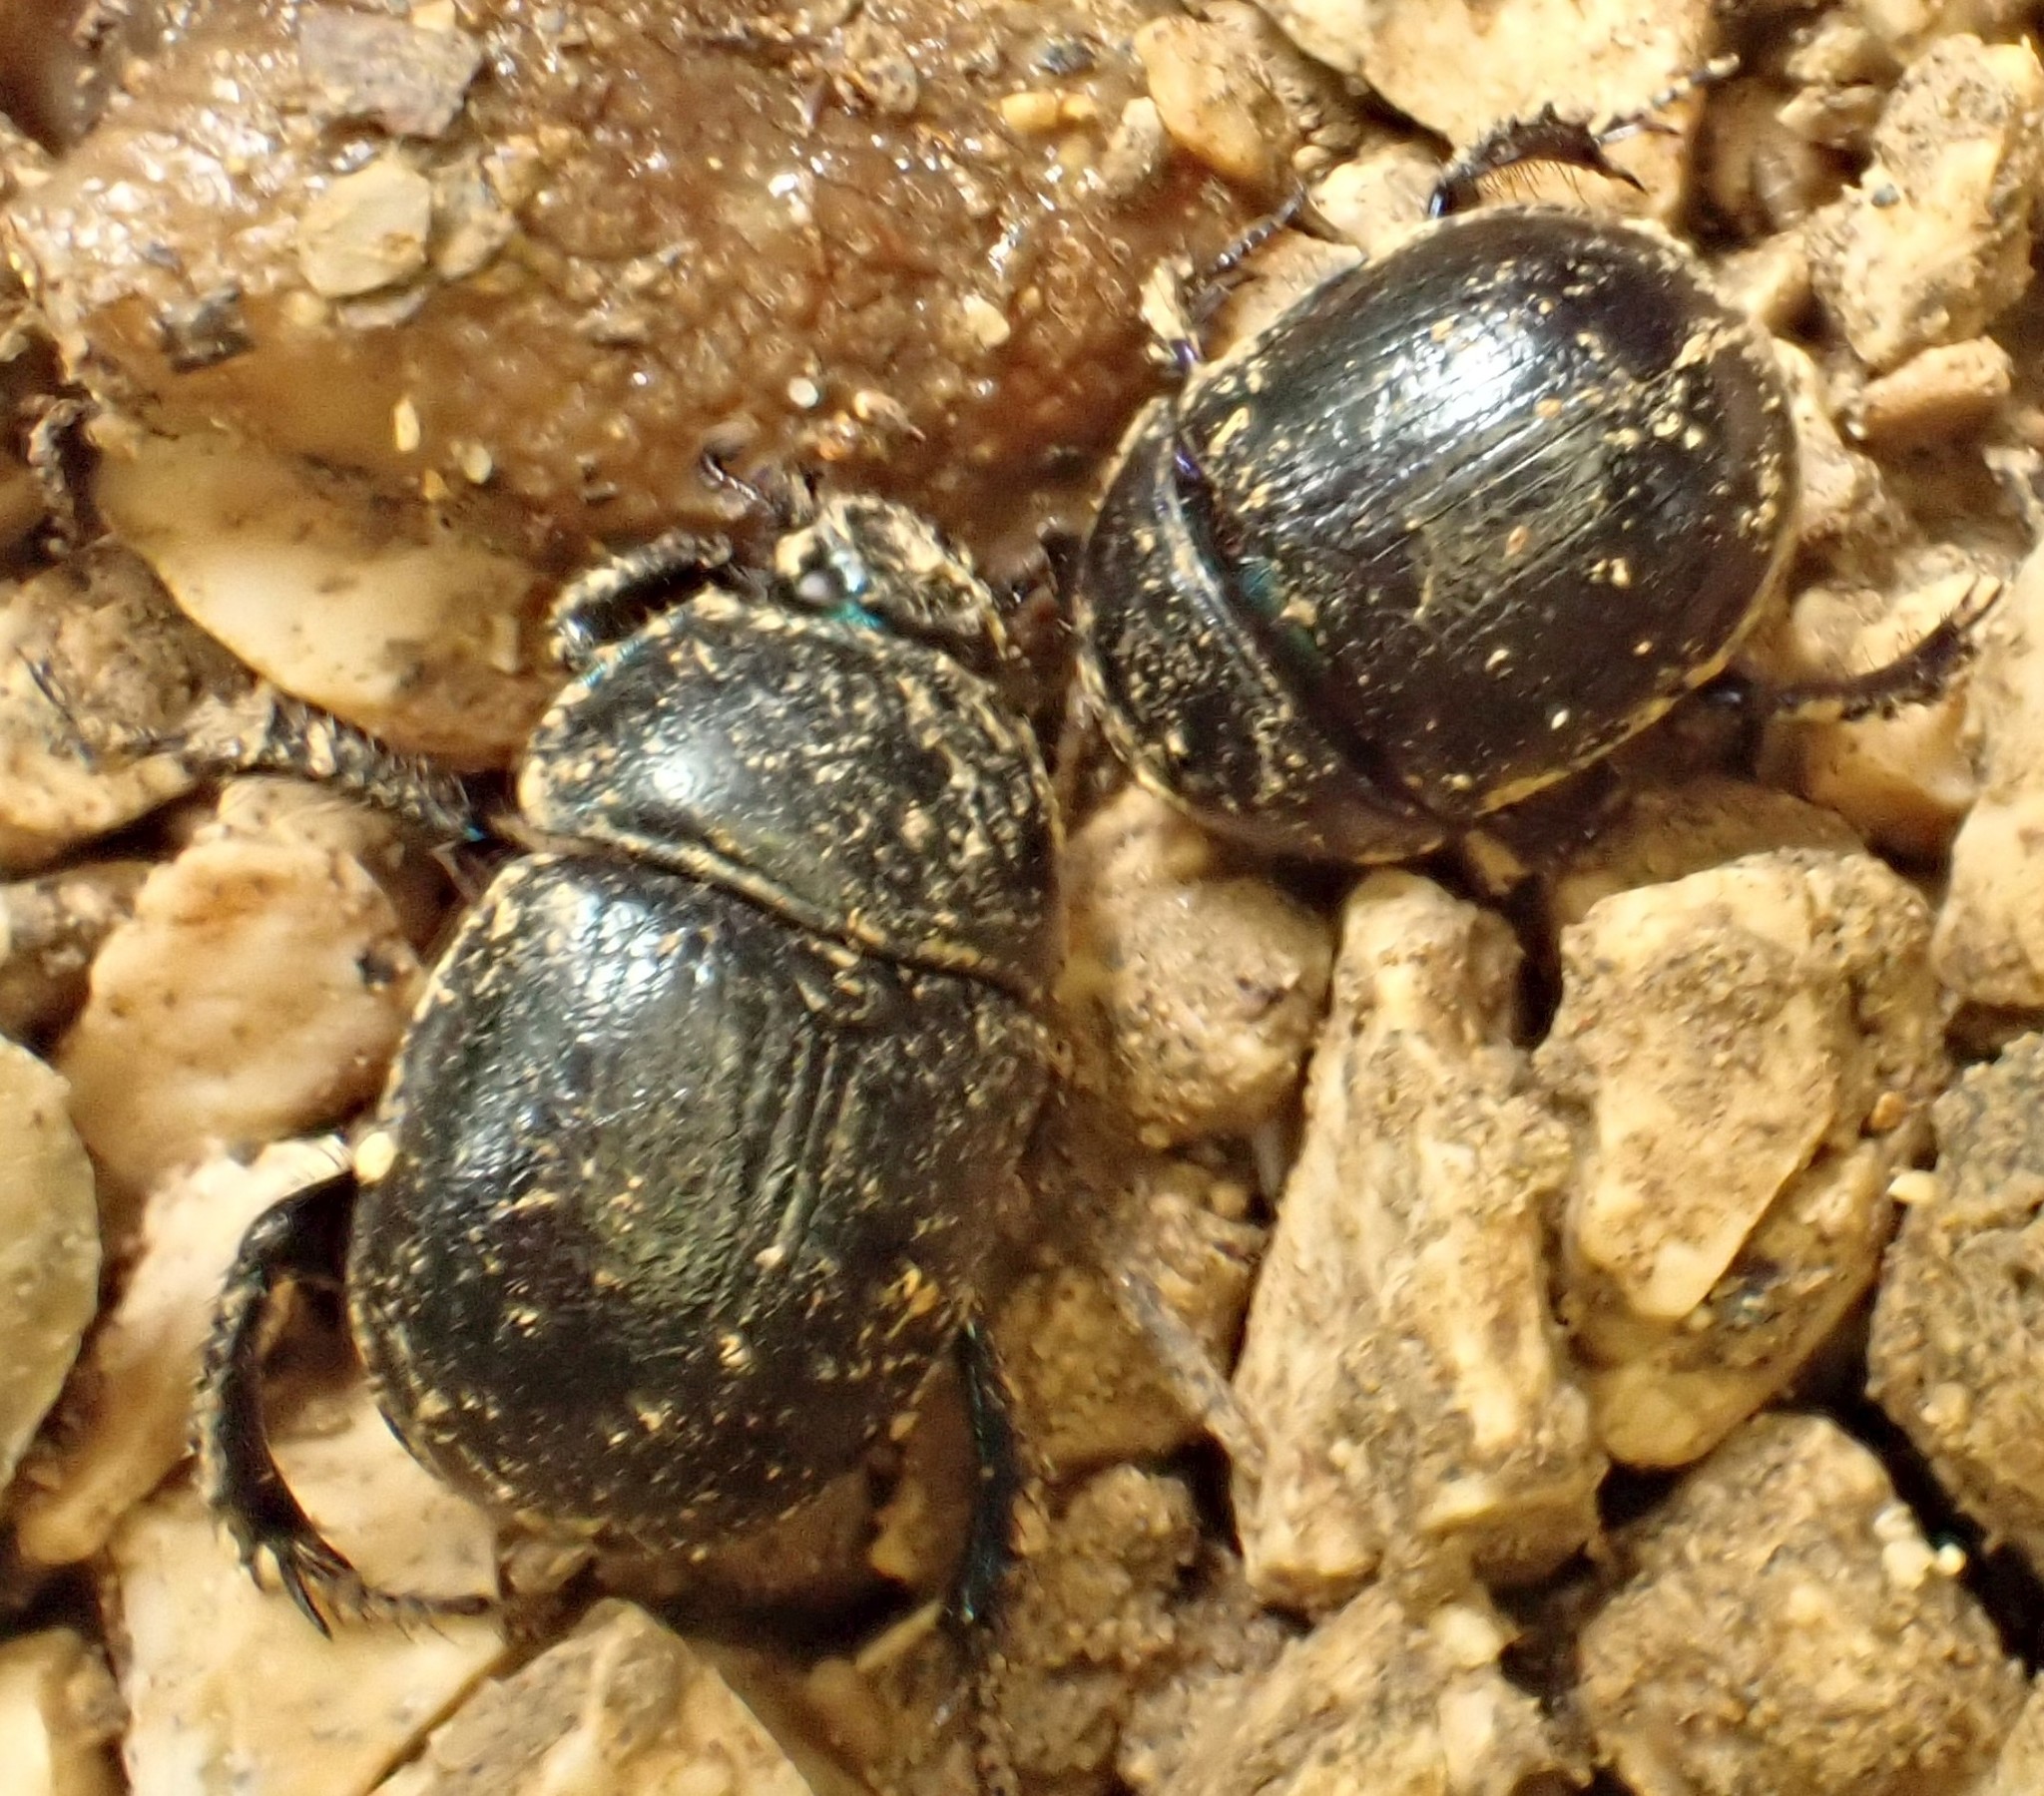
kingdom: Animalia
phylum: Arthropoda
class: Insecta
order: Coleoptera
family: Geotrupidae
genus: Anoplotrupes
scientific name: Anoplotrupes stercorosus
